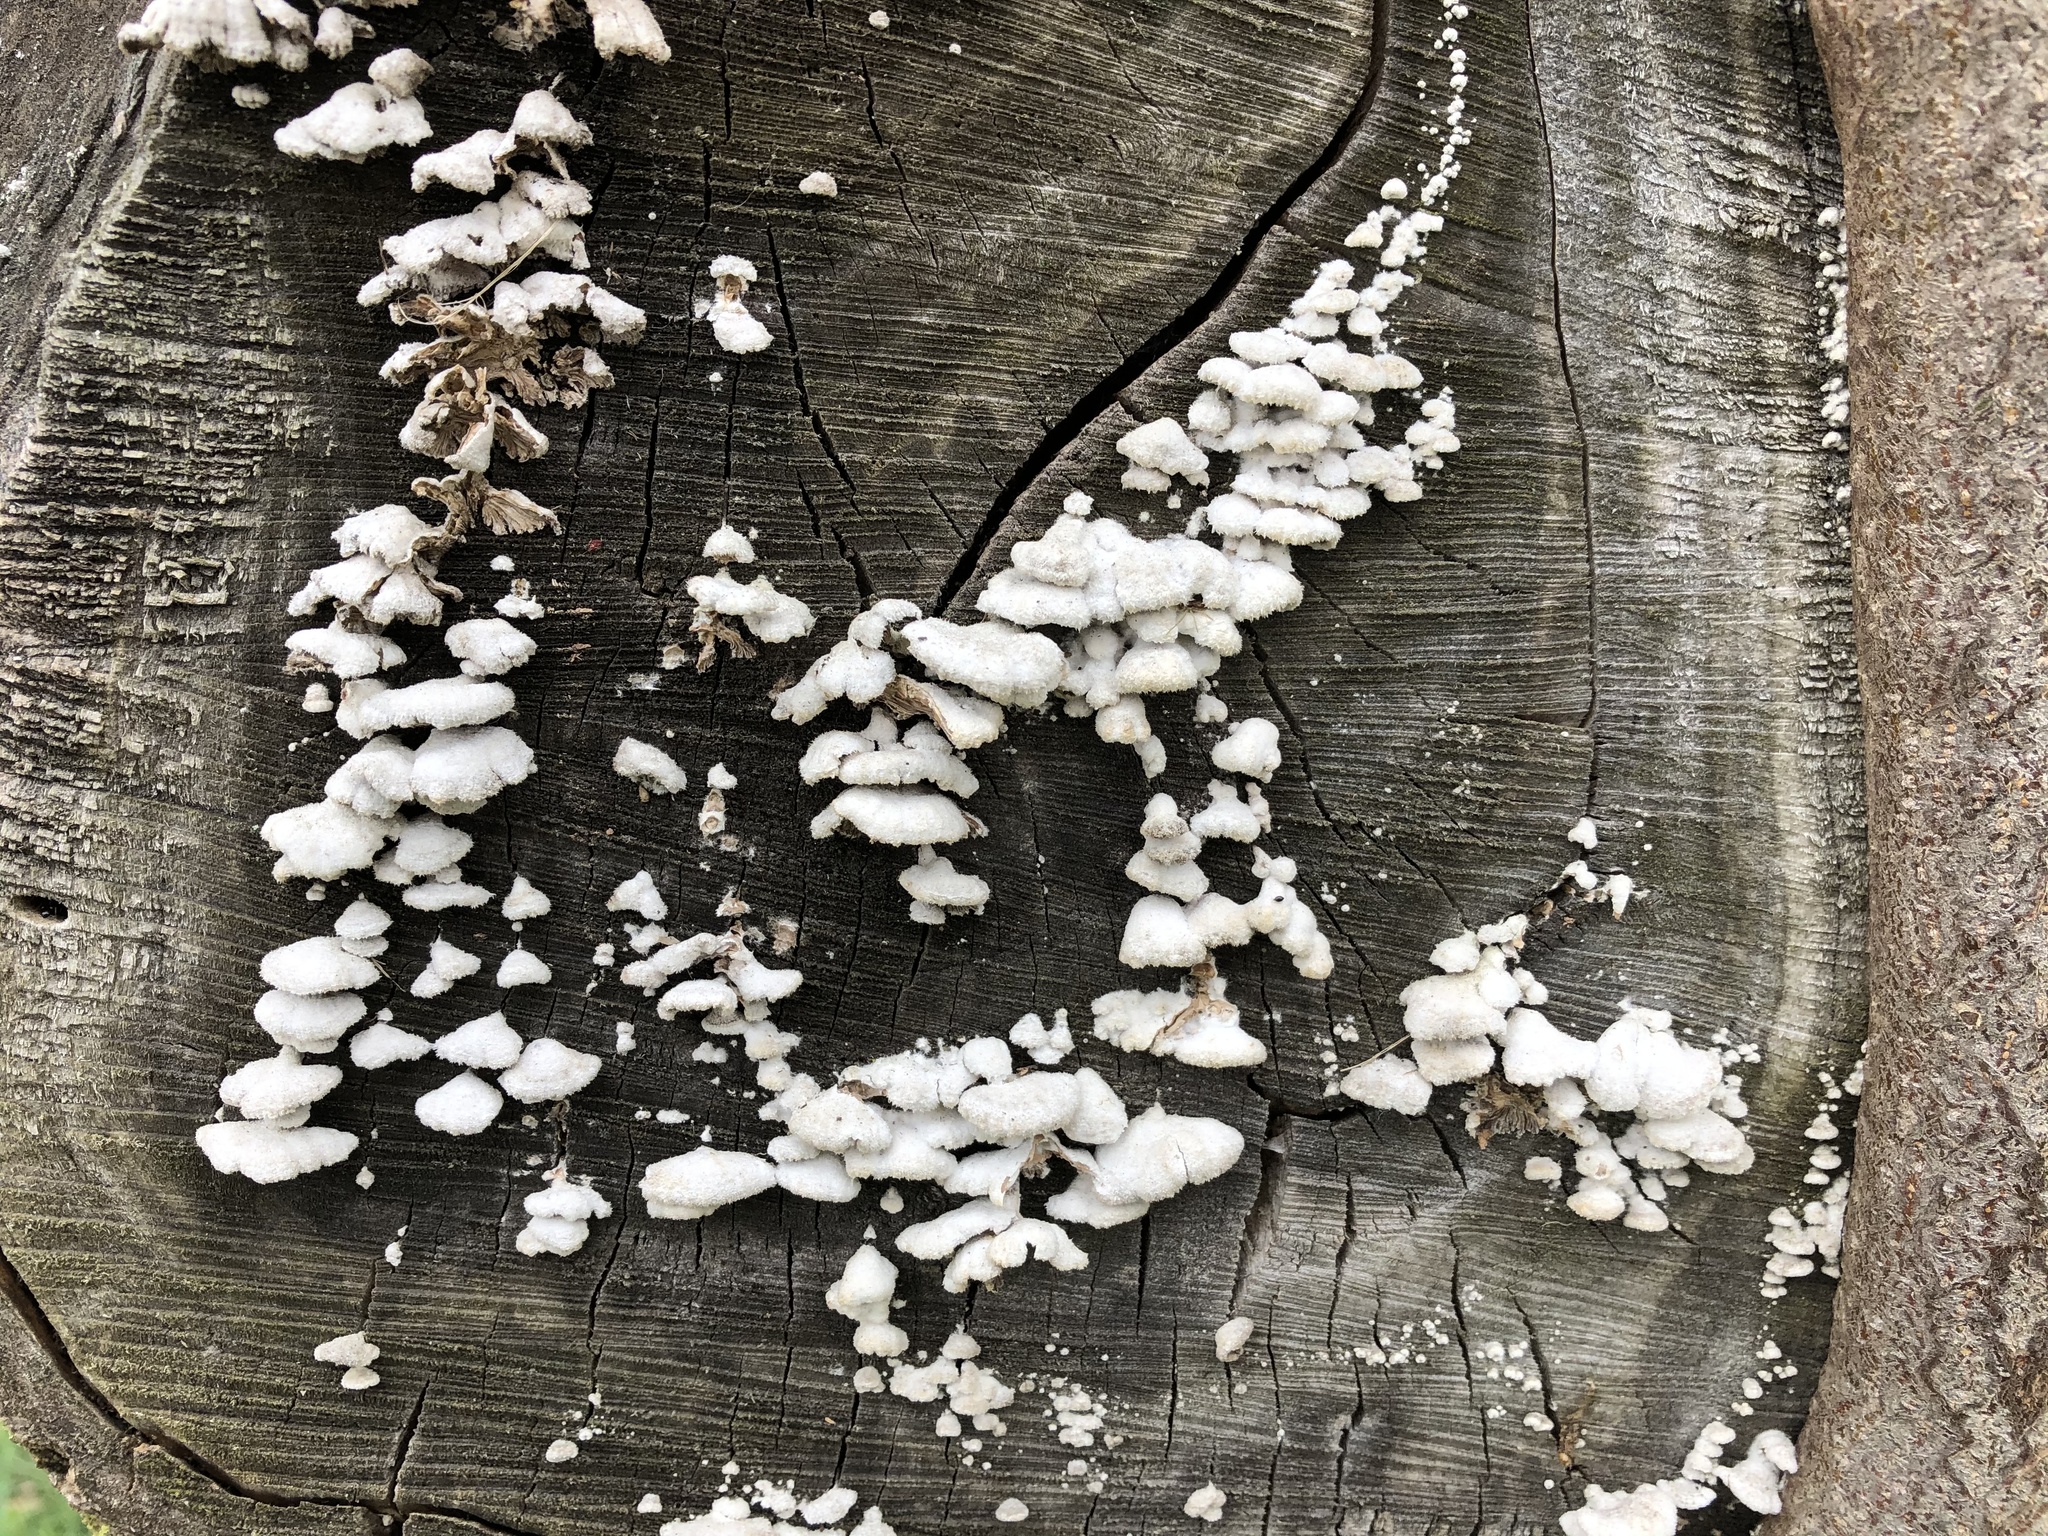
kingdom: Fungi
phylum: Basidiomycota
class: Agaricomycetes
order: Agaricales
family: Schizophyllaceae
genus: Schizophyllum
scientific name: Schizophyllum commune
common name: Common porecrust
